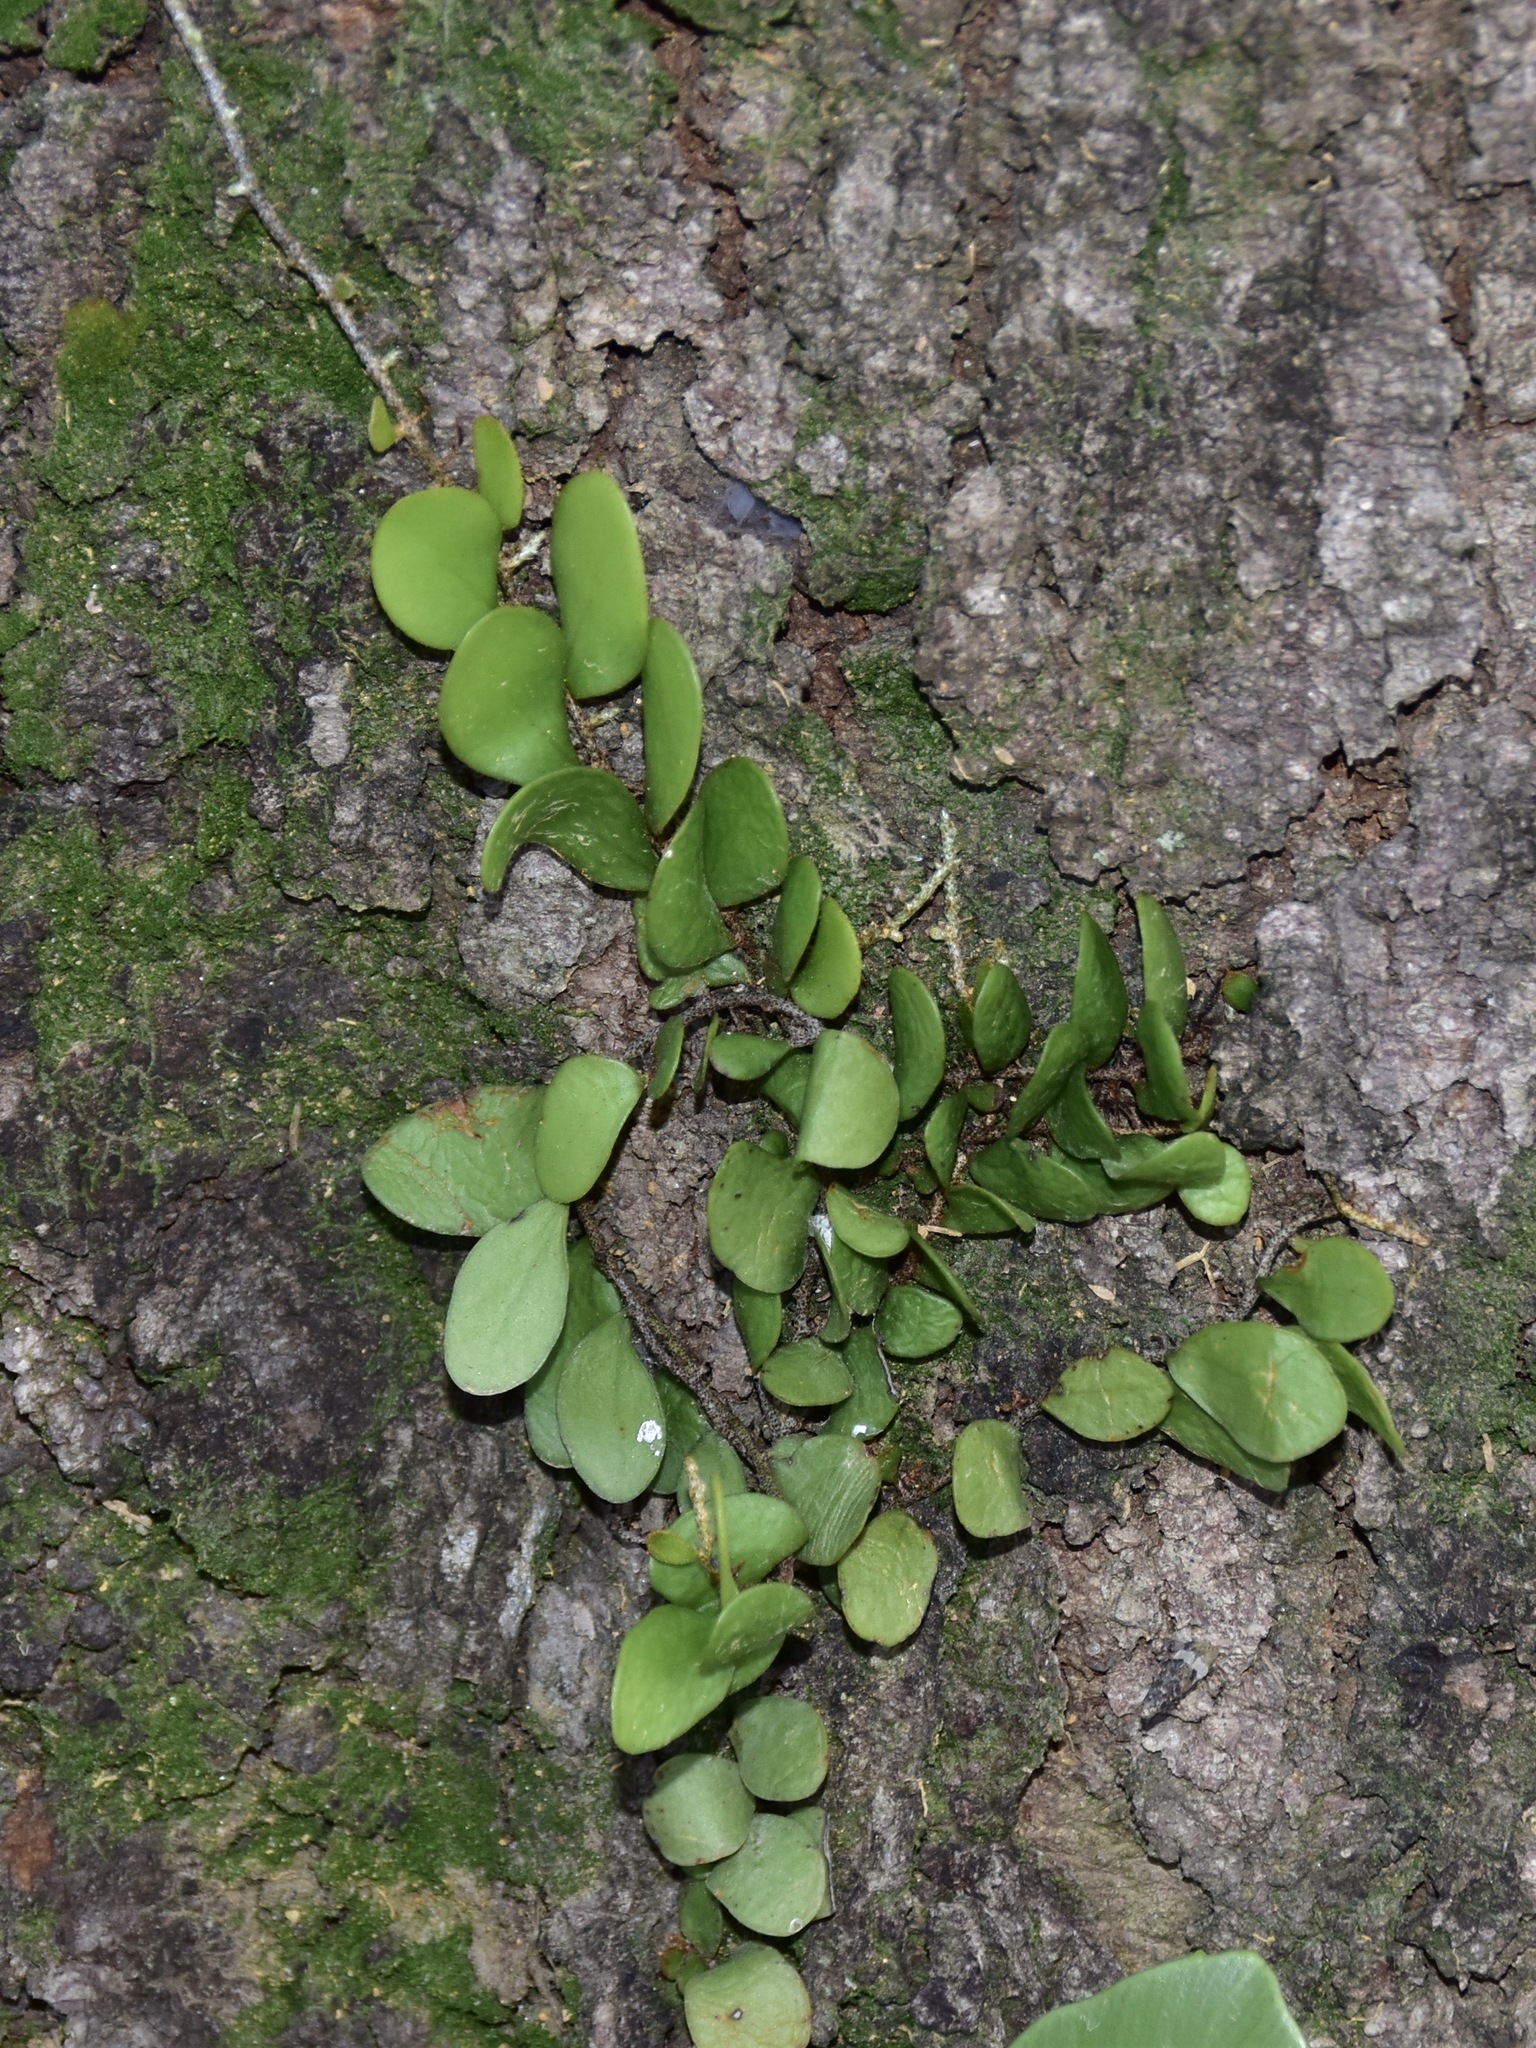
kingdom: Plantae
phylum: Tracheophyta
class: Polypodiopsida
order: Polypodiales
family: Polypodiaceae
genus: Pyrrosia
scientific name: Pyrrosia piloselloides
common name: Epiphytic creeping fern
